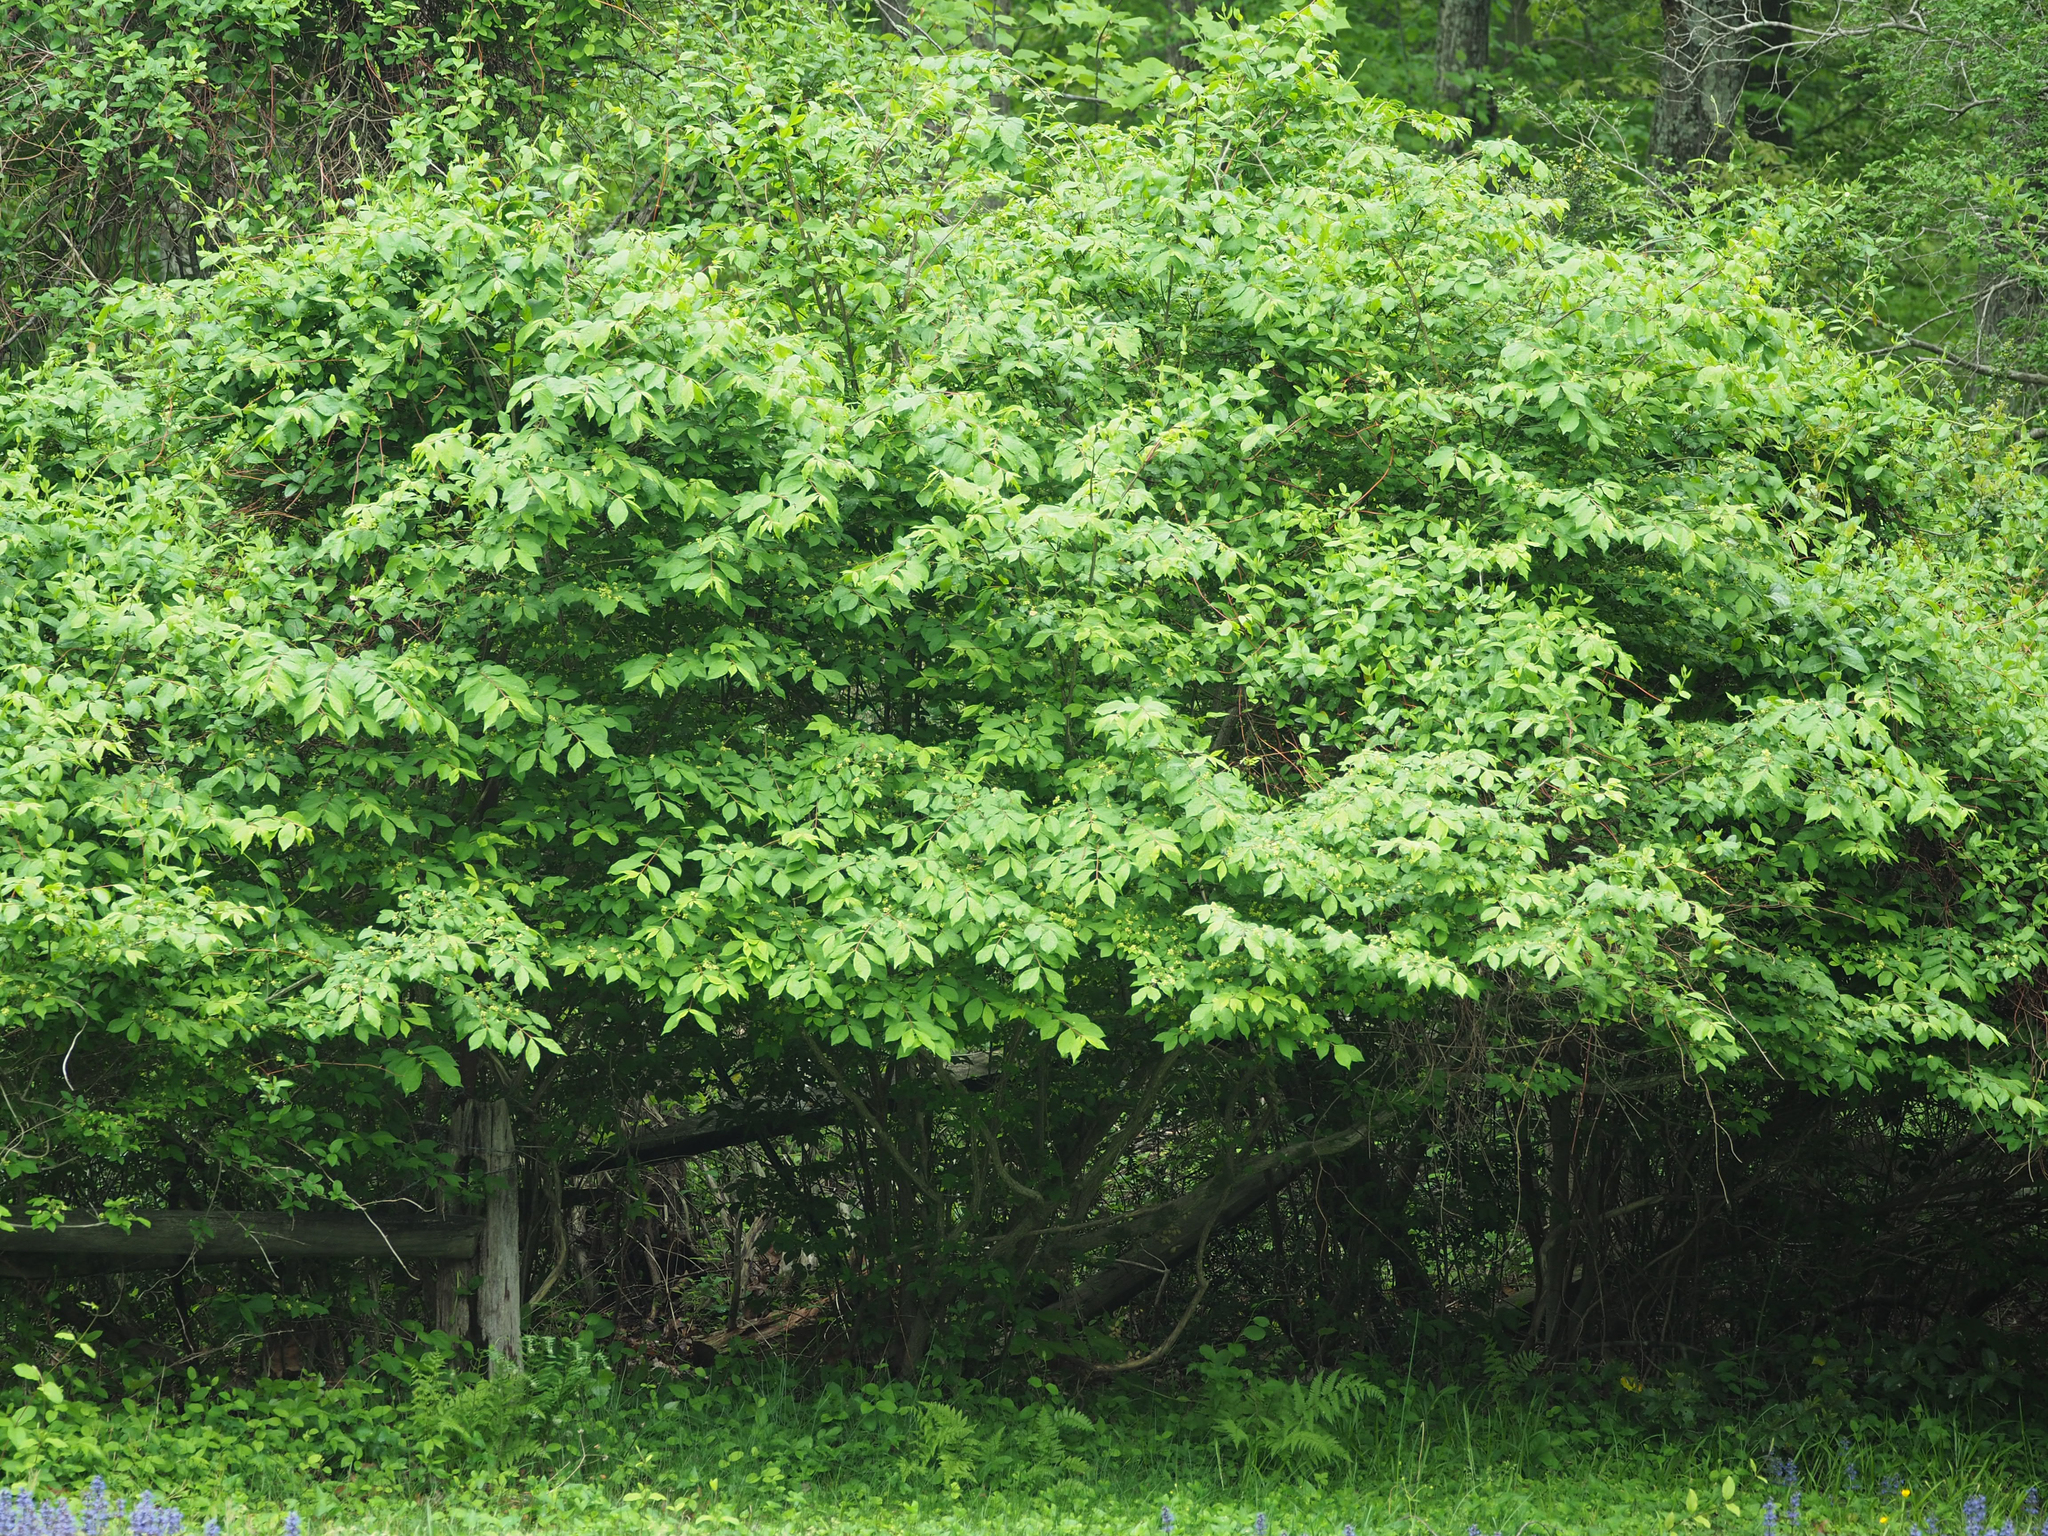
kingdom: Plantae
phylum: Tracheophyta
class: Magnoliopsida
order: Celastrales
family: Celastraceae
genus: Euonymus
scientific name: Euonymus alatus
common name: Winged euonymus
